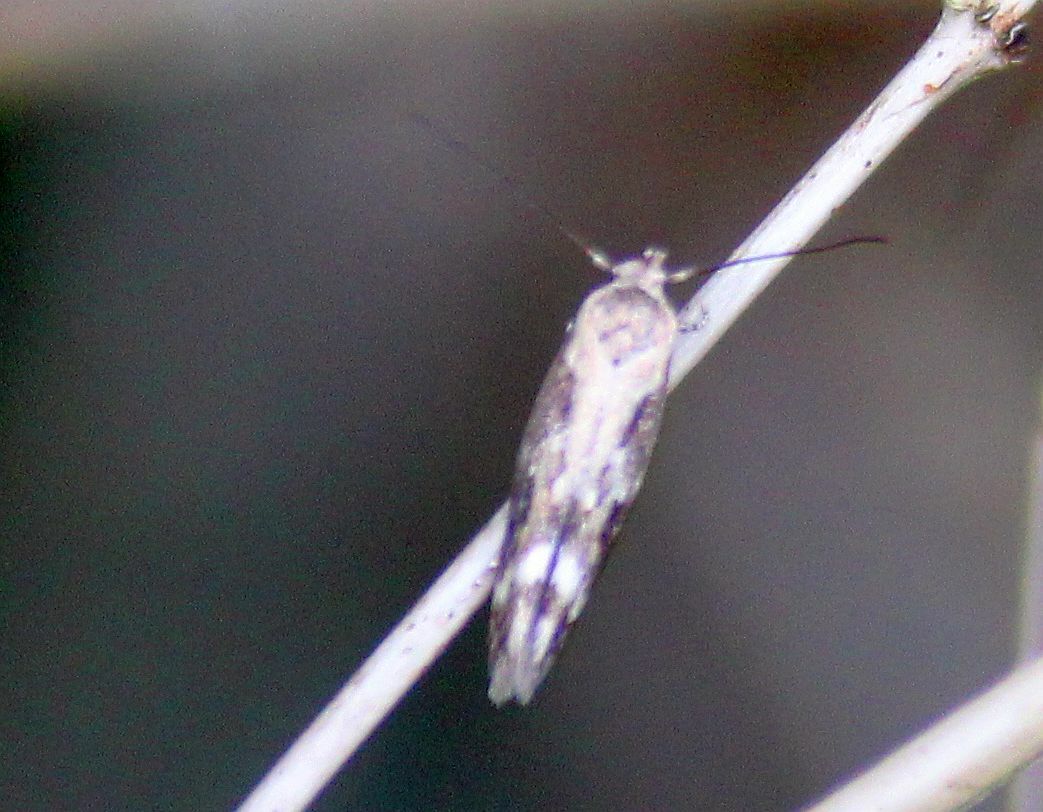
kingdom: Animalia
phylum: Arthropoda
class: Insecta
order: Lepidoptera
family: Momphidae
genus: Mompha
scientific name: Mompha subbistrigella
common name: Garden cosmet
